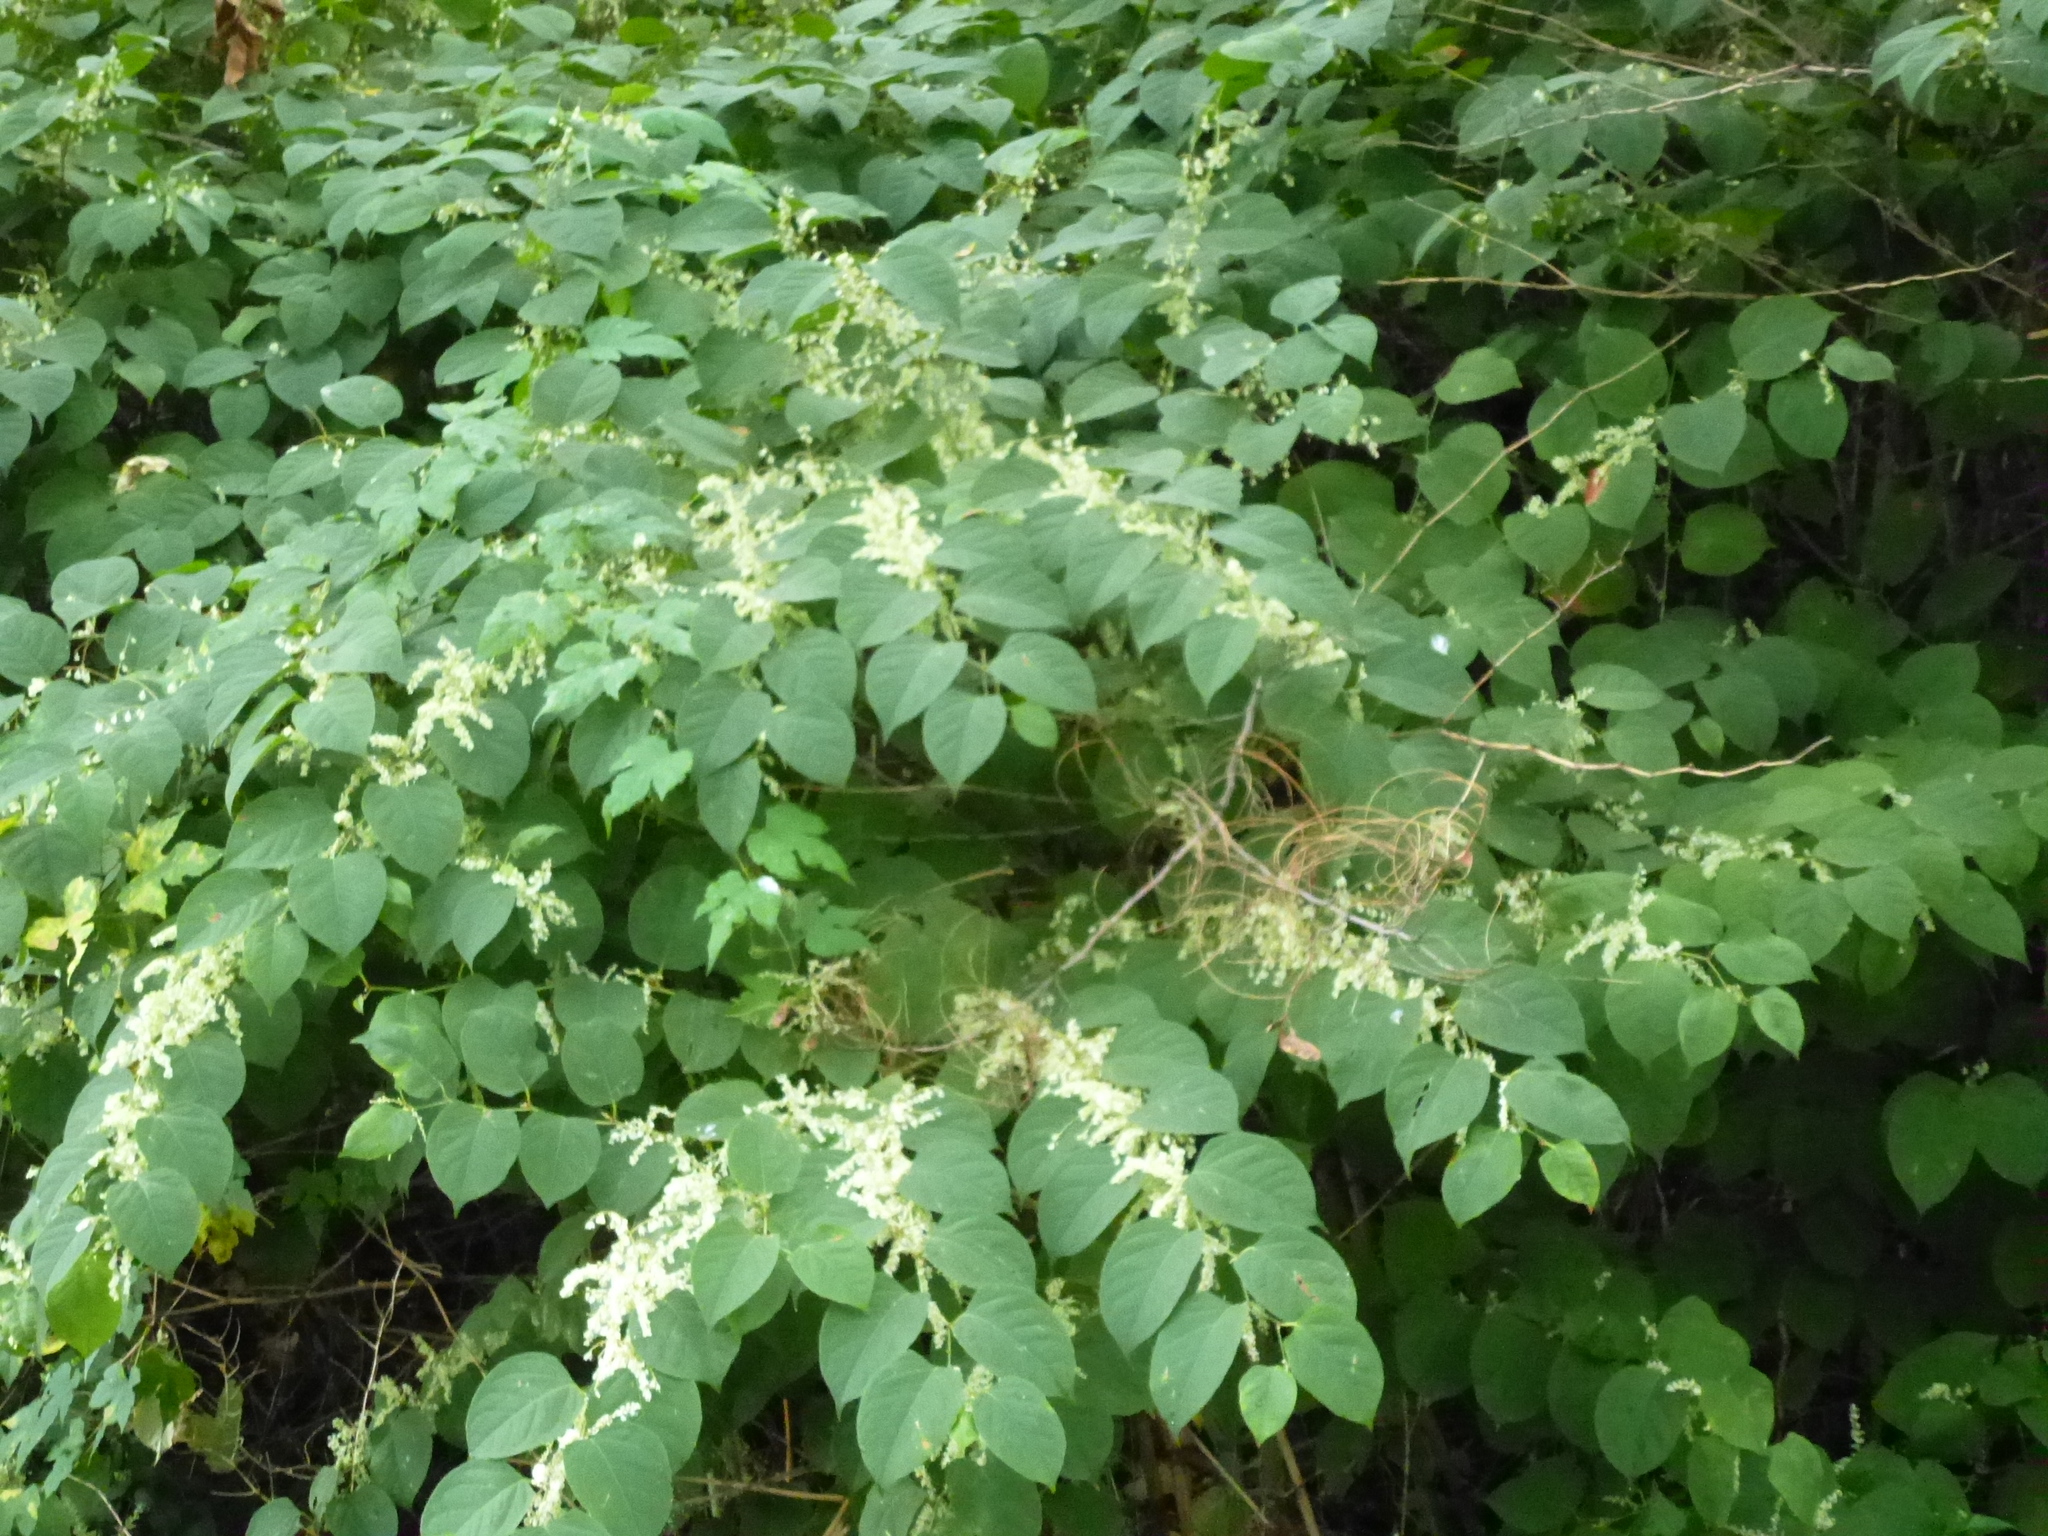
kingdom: Plantae
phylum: Tracheophyta
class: Magnoliopsida
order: Caryophyllales
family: Polygonaceae
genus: Reynoutria
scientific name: Reynoutria japonica
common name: Japanese knotweed
